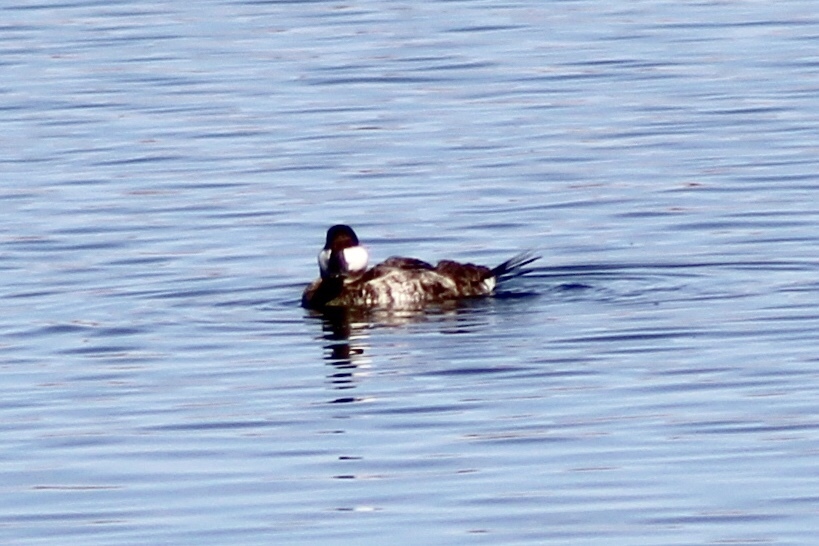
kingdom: Animalia
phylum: Chordata
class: Aves
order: Anseriformes
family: Anatidae
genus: Oxyura
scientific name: Oxyura jamaicensis
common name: Ruddy duck
